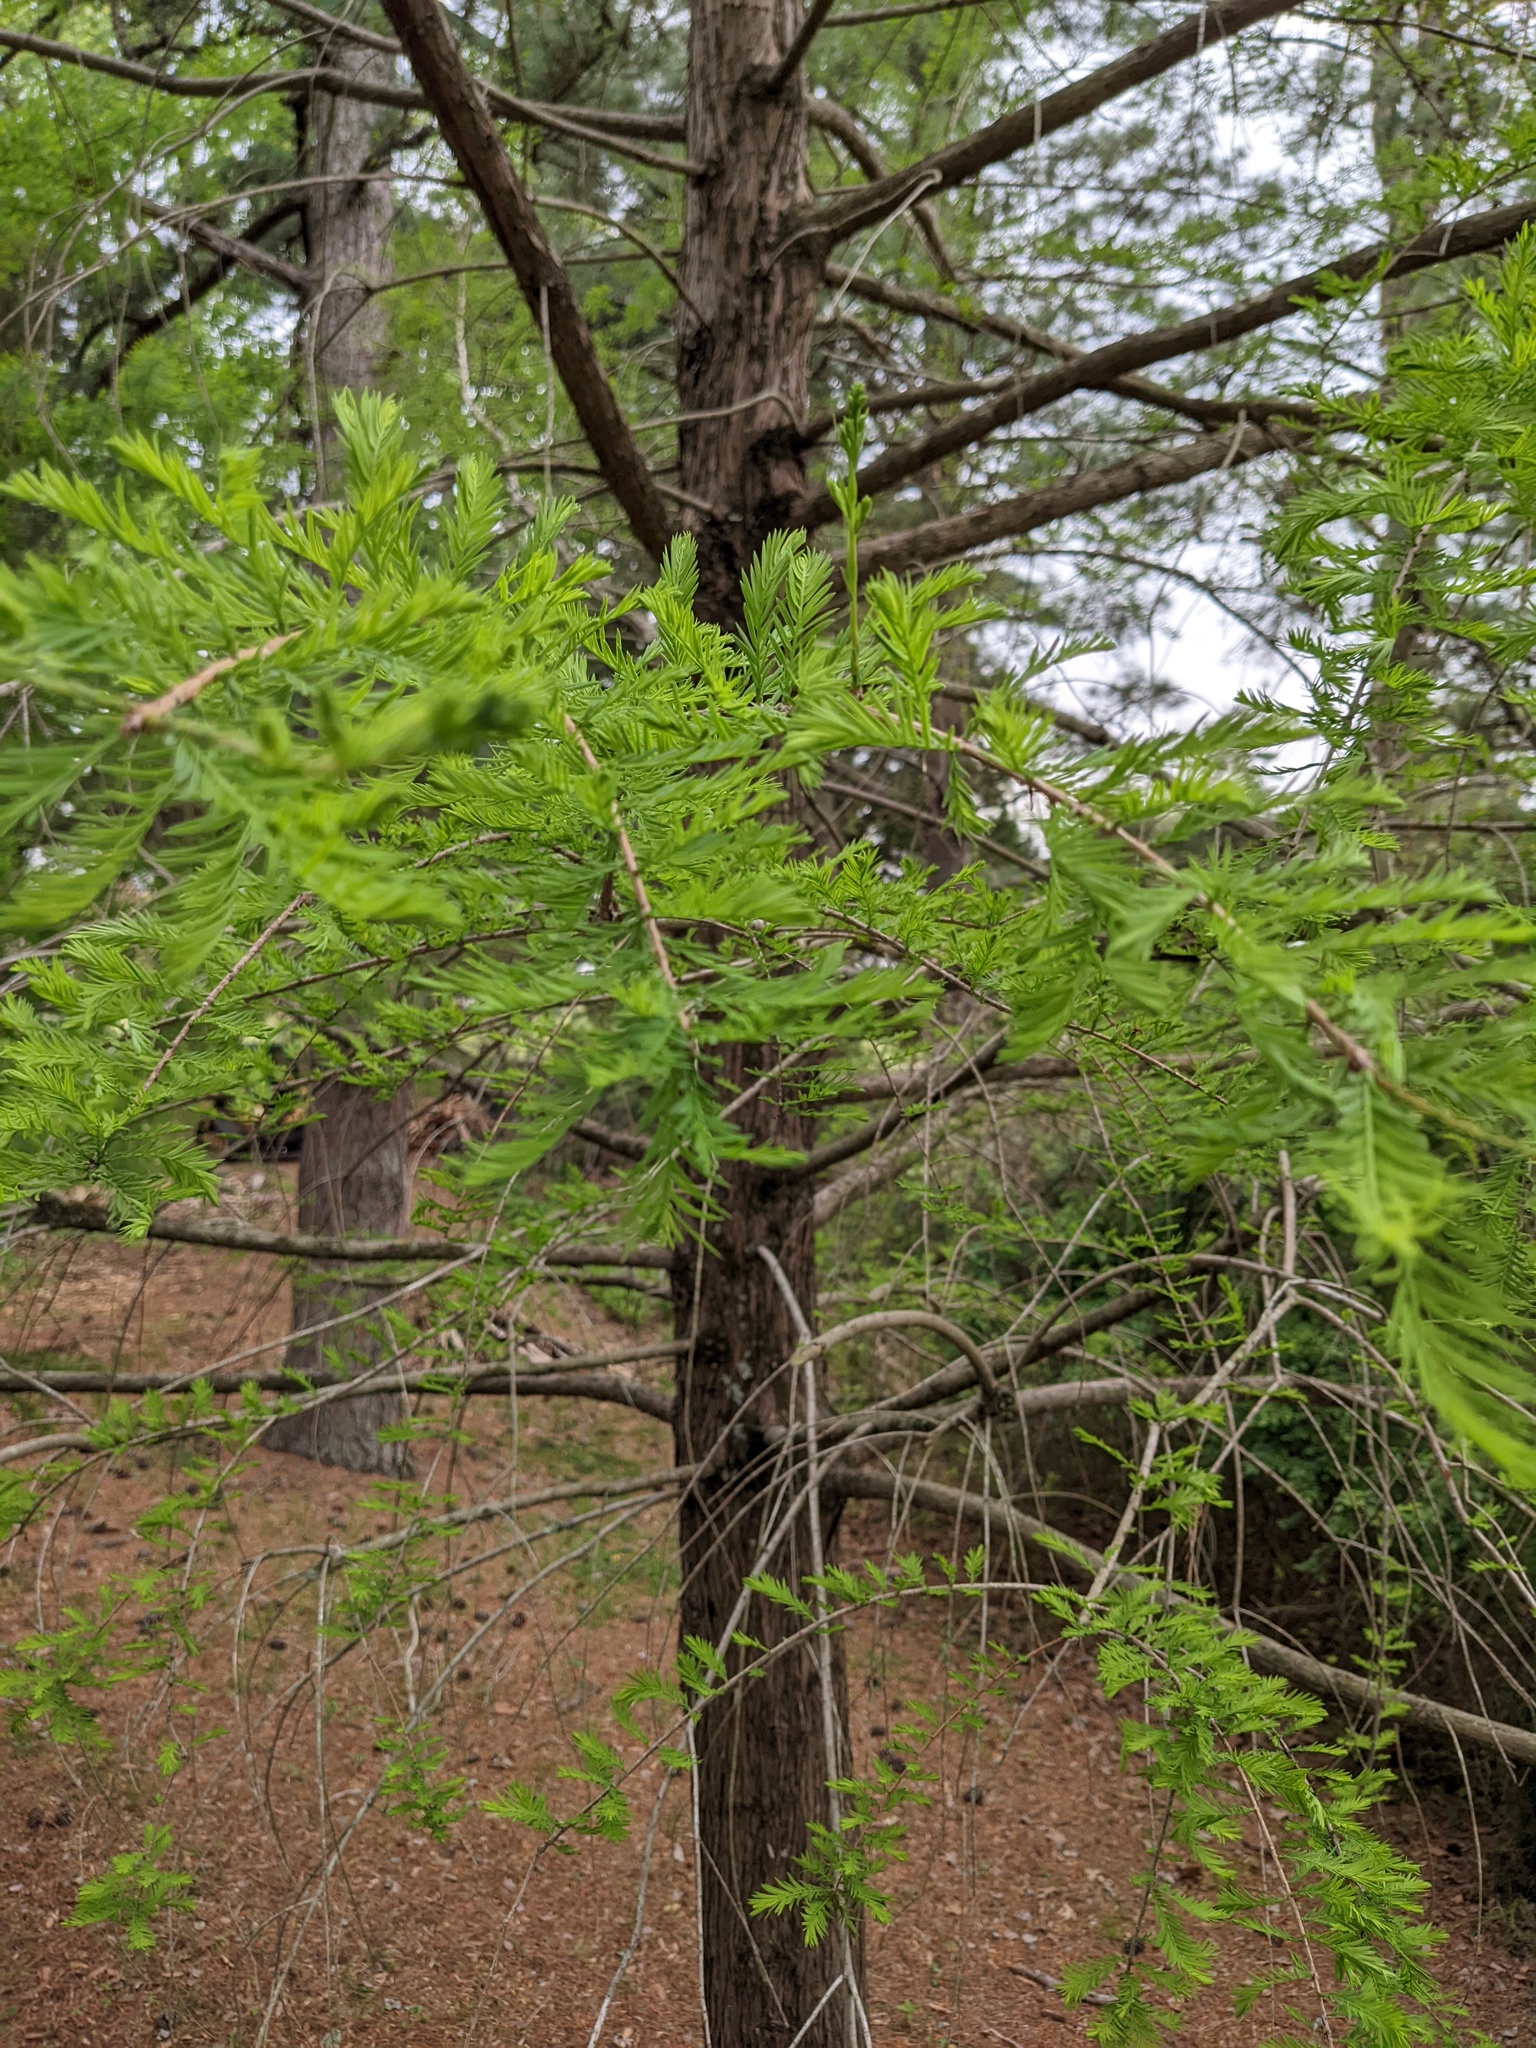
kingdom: Plantae
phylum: Tracheophyta
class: Pinopsida
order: Pinales
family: Cupressaceae
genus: Taxodium
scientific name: Taxodium distichum
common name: Bald cypress
